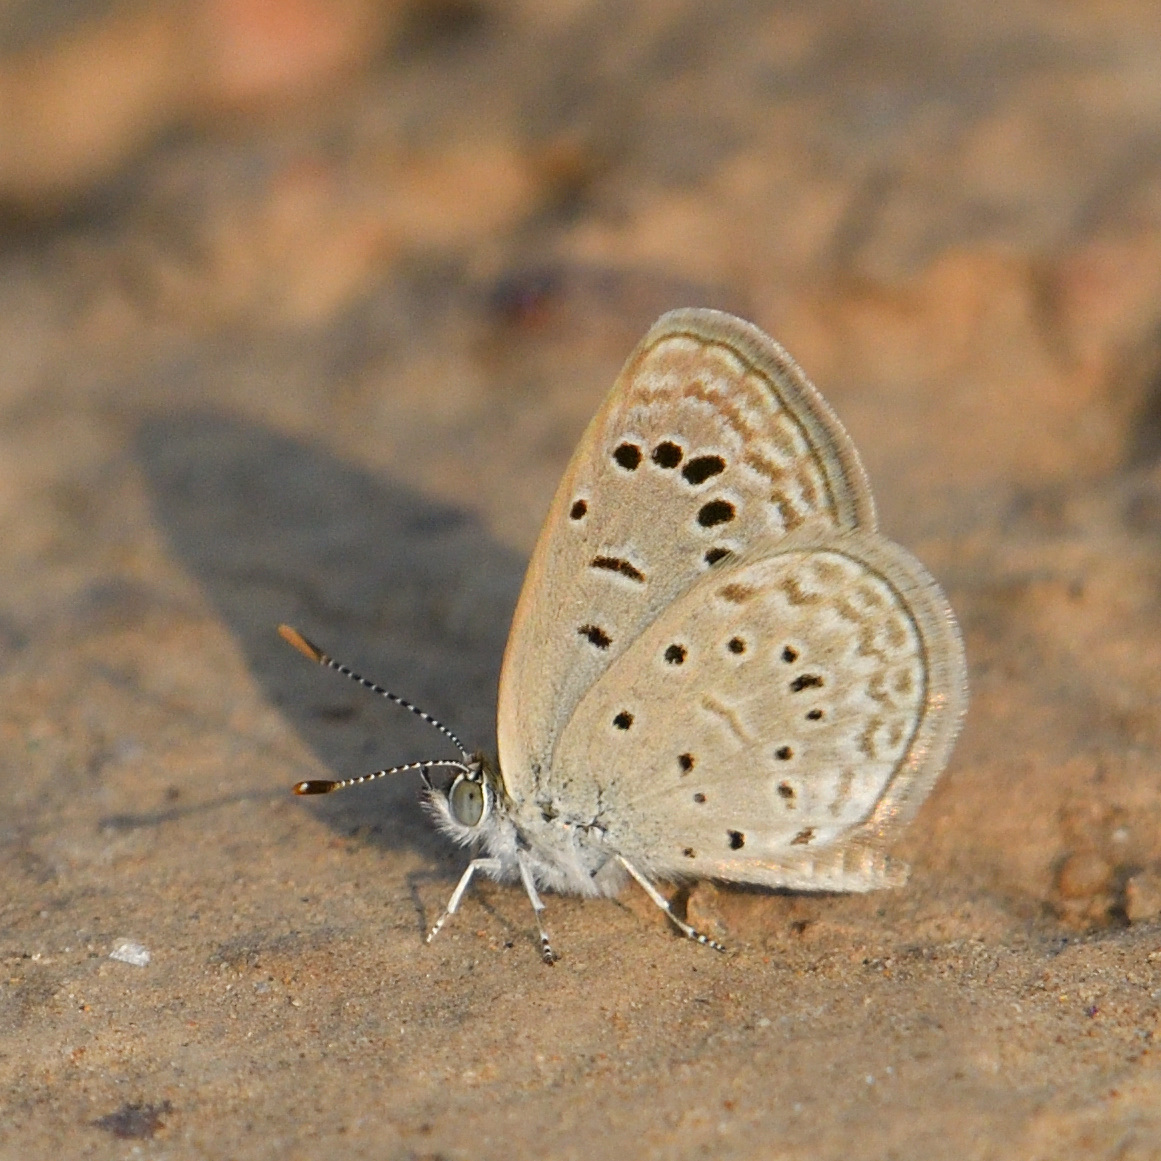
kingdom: Animalia
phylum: Arthropoda
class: Insecta
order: Lepidoptera
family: Lycaenidae
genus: Zizeeria
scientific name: Zizeeria karsandra
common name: Dark grass blue
